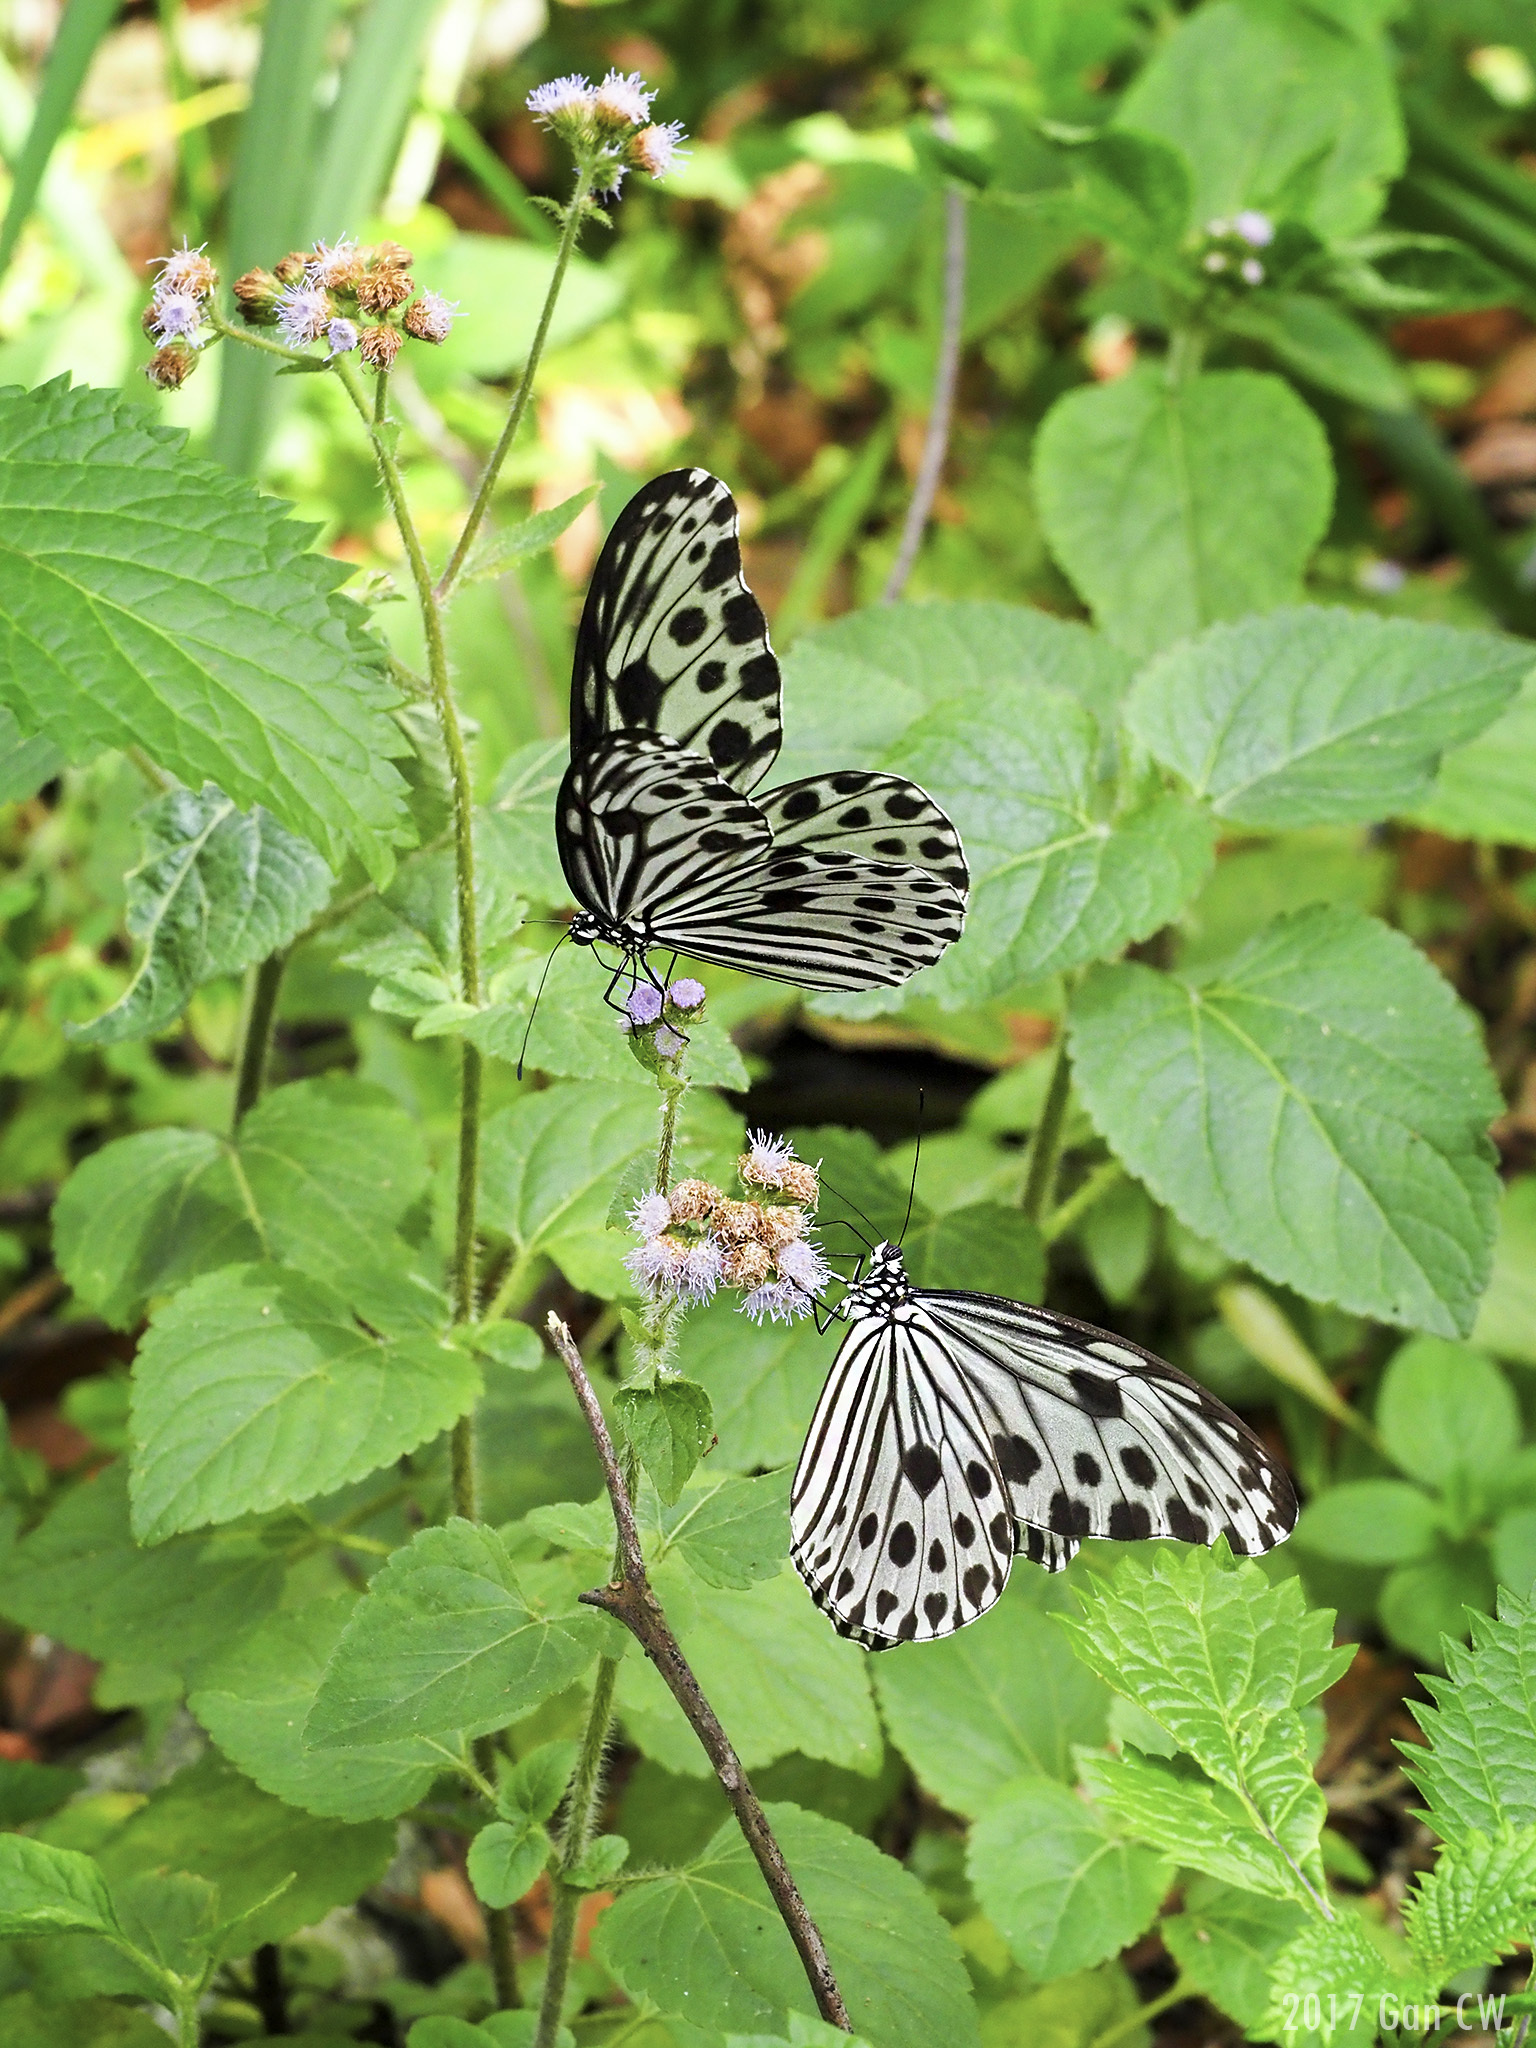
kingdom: Animalia
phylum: Arthropoda
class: Insecta
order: Lepidoptera
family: Nymphalidae
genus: Ideopsis
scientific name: Ideopsis gaura
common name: Smaller wood nymph
